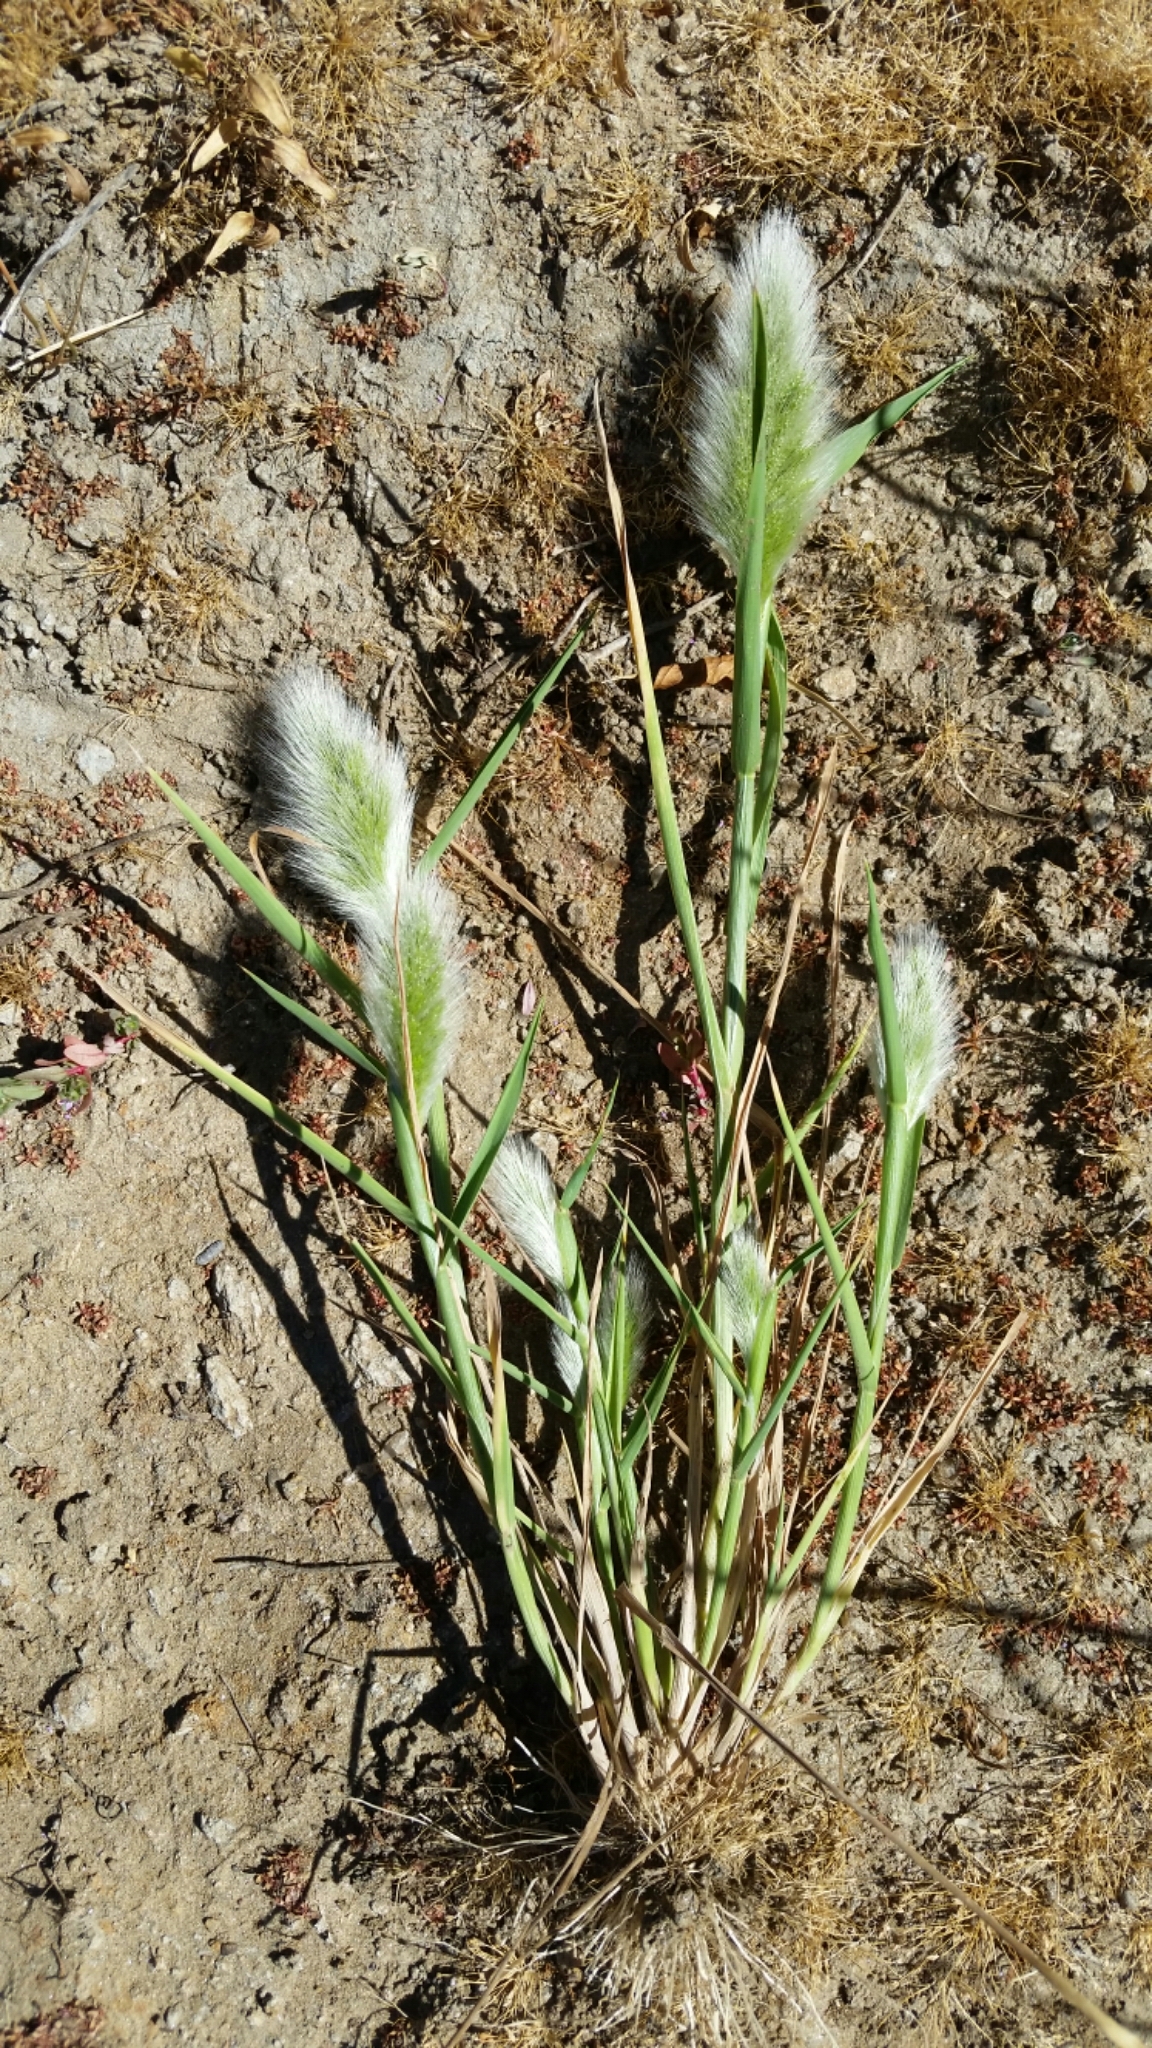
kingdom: Plantae
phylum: Tracheophyta
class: Liliopsida
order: Poales
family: Poaceae
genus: Polypogon
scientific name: Polypogon monspeliensis
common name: Annual rabbitsfoot grass
